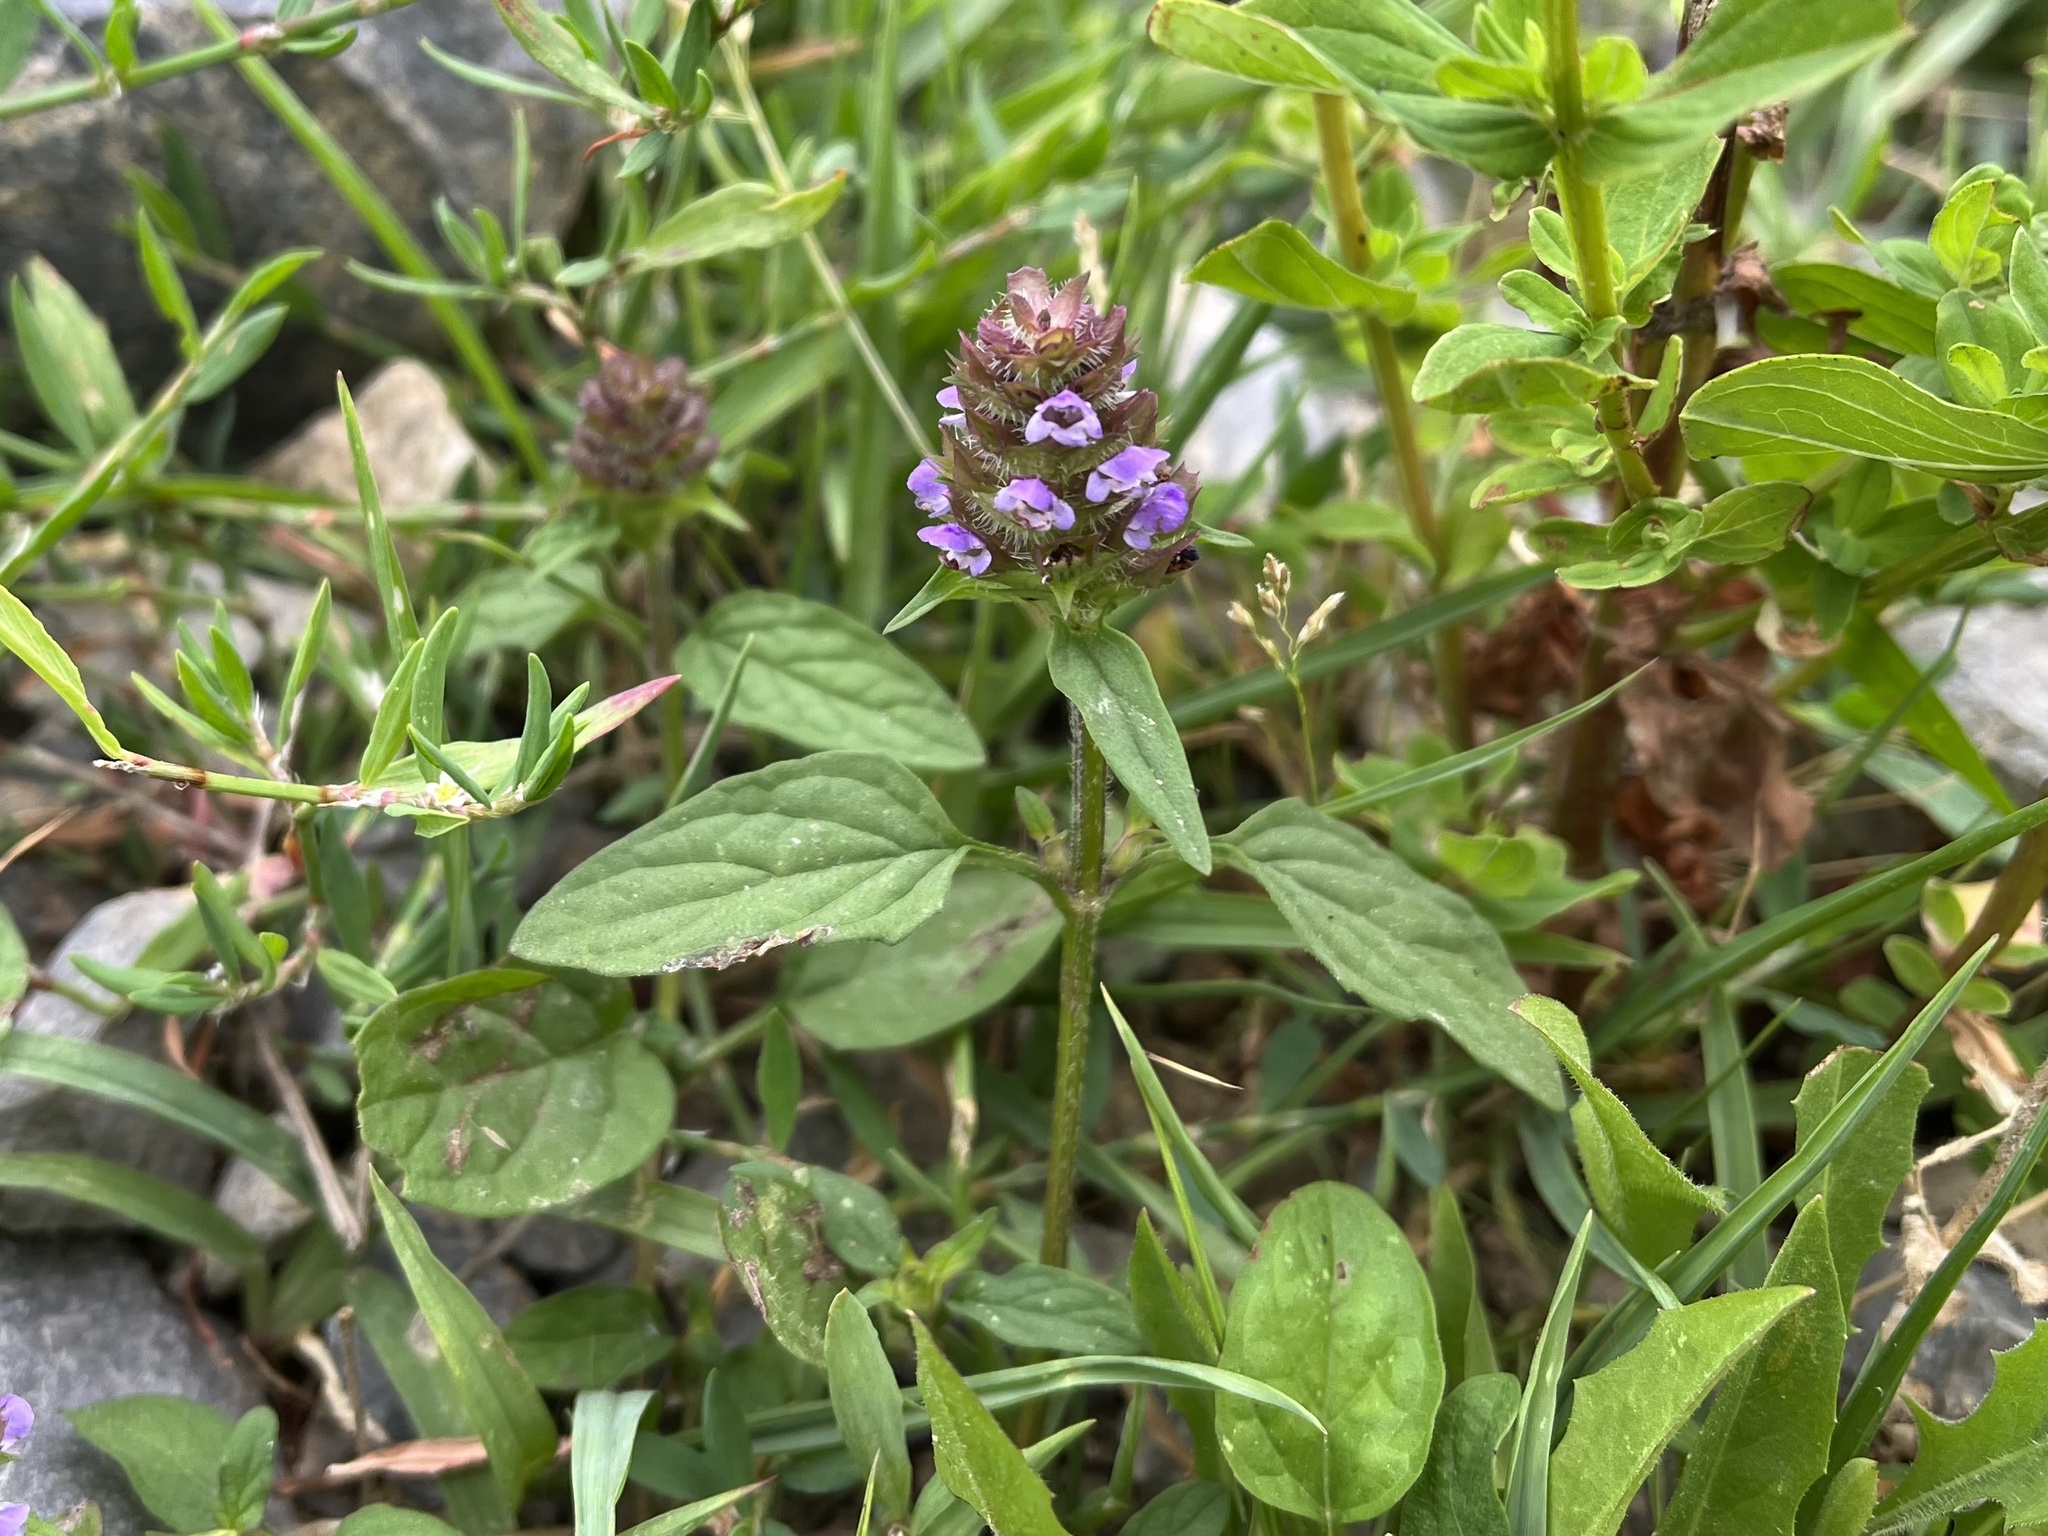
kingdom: Plantae
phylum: Tracheophyta
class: Magnoliopsida
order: Lamiales
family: Lamiaceae
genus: Prunella
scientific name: Prunella vulgaris
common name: Heal-all
